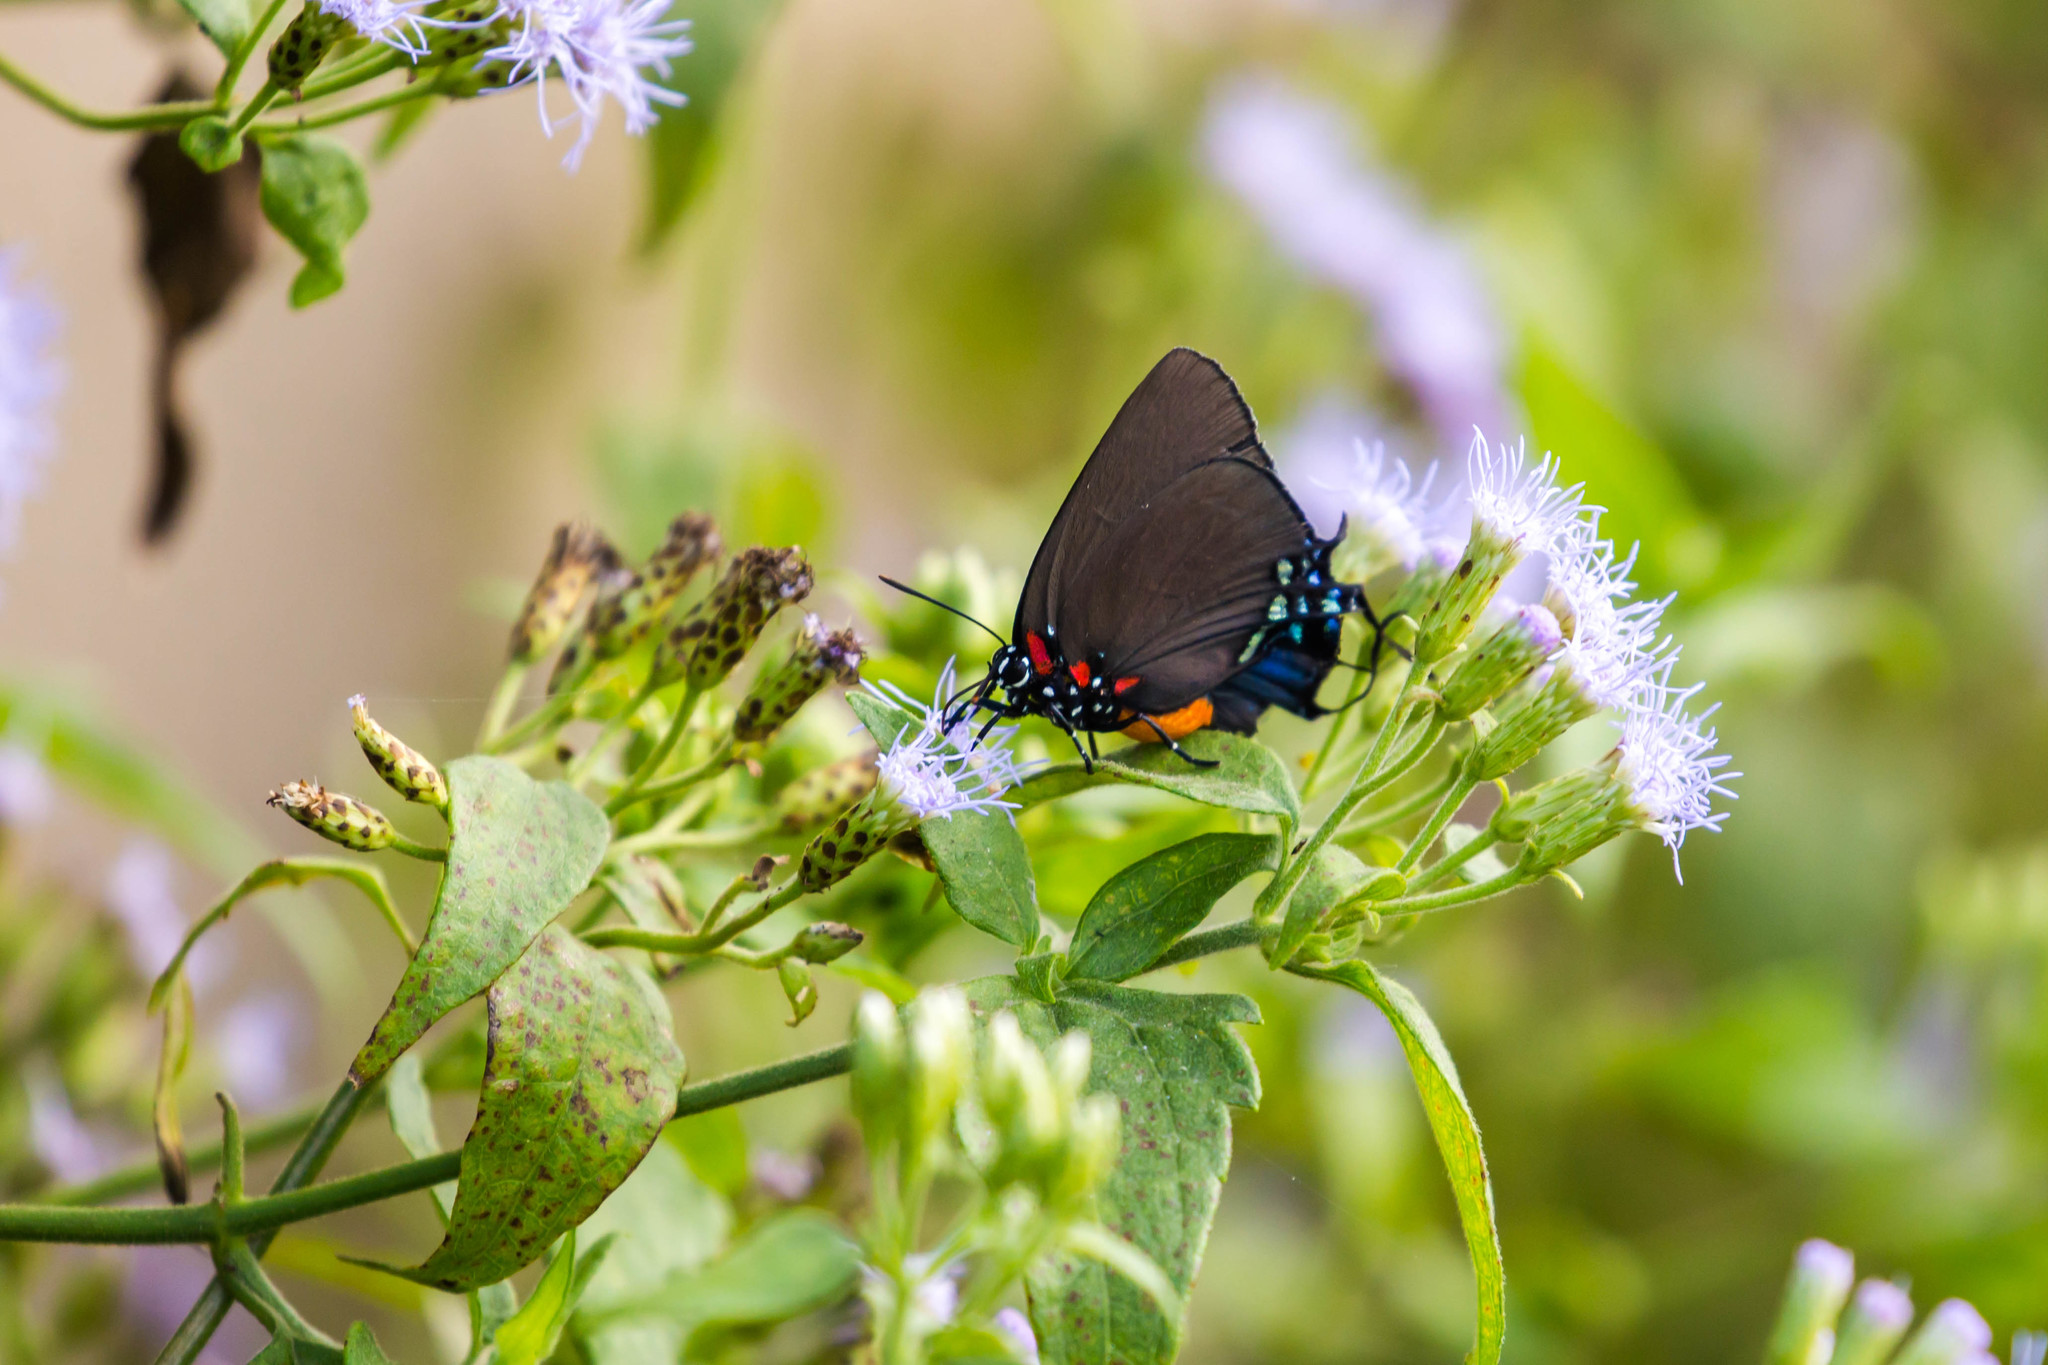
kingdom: Animalia
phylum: Arthropoda
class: Insecta
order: Lepidoptera
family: Lycaenidae
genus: Atlides
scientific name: Atlides halesus
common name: Great purple hairstreak
